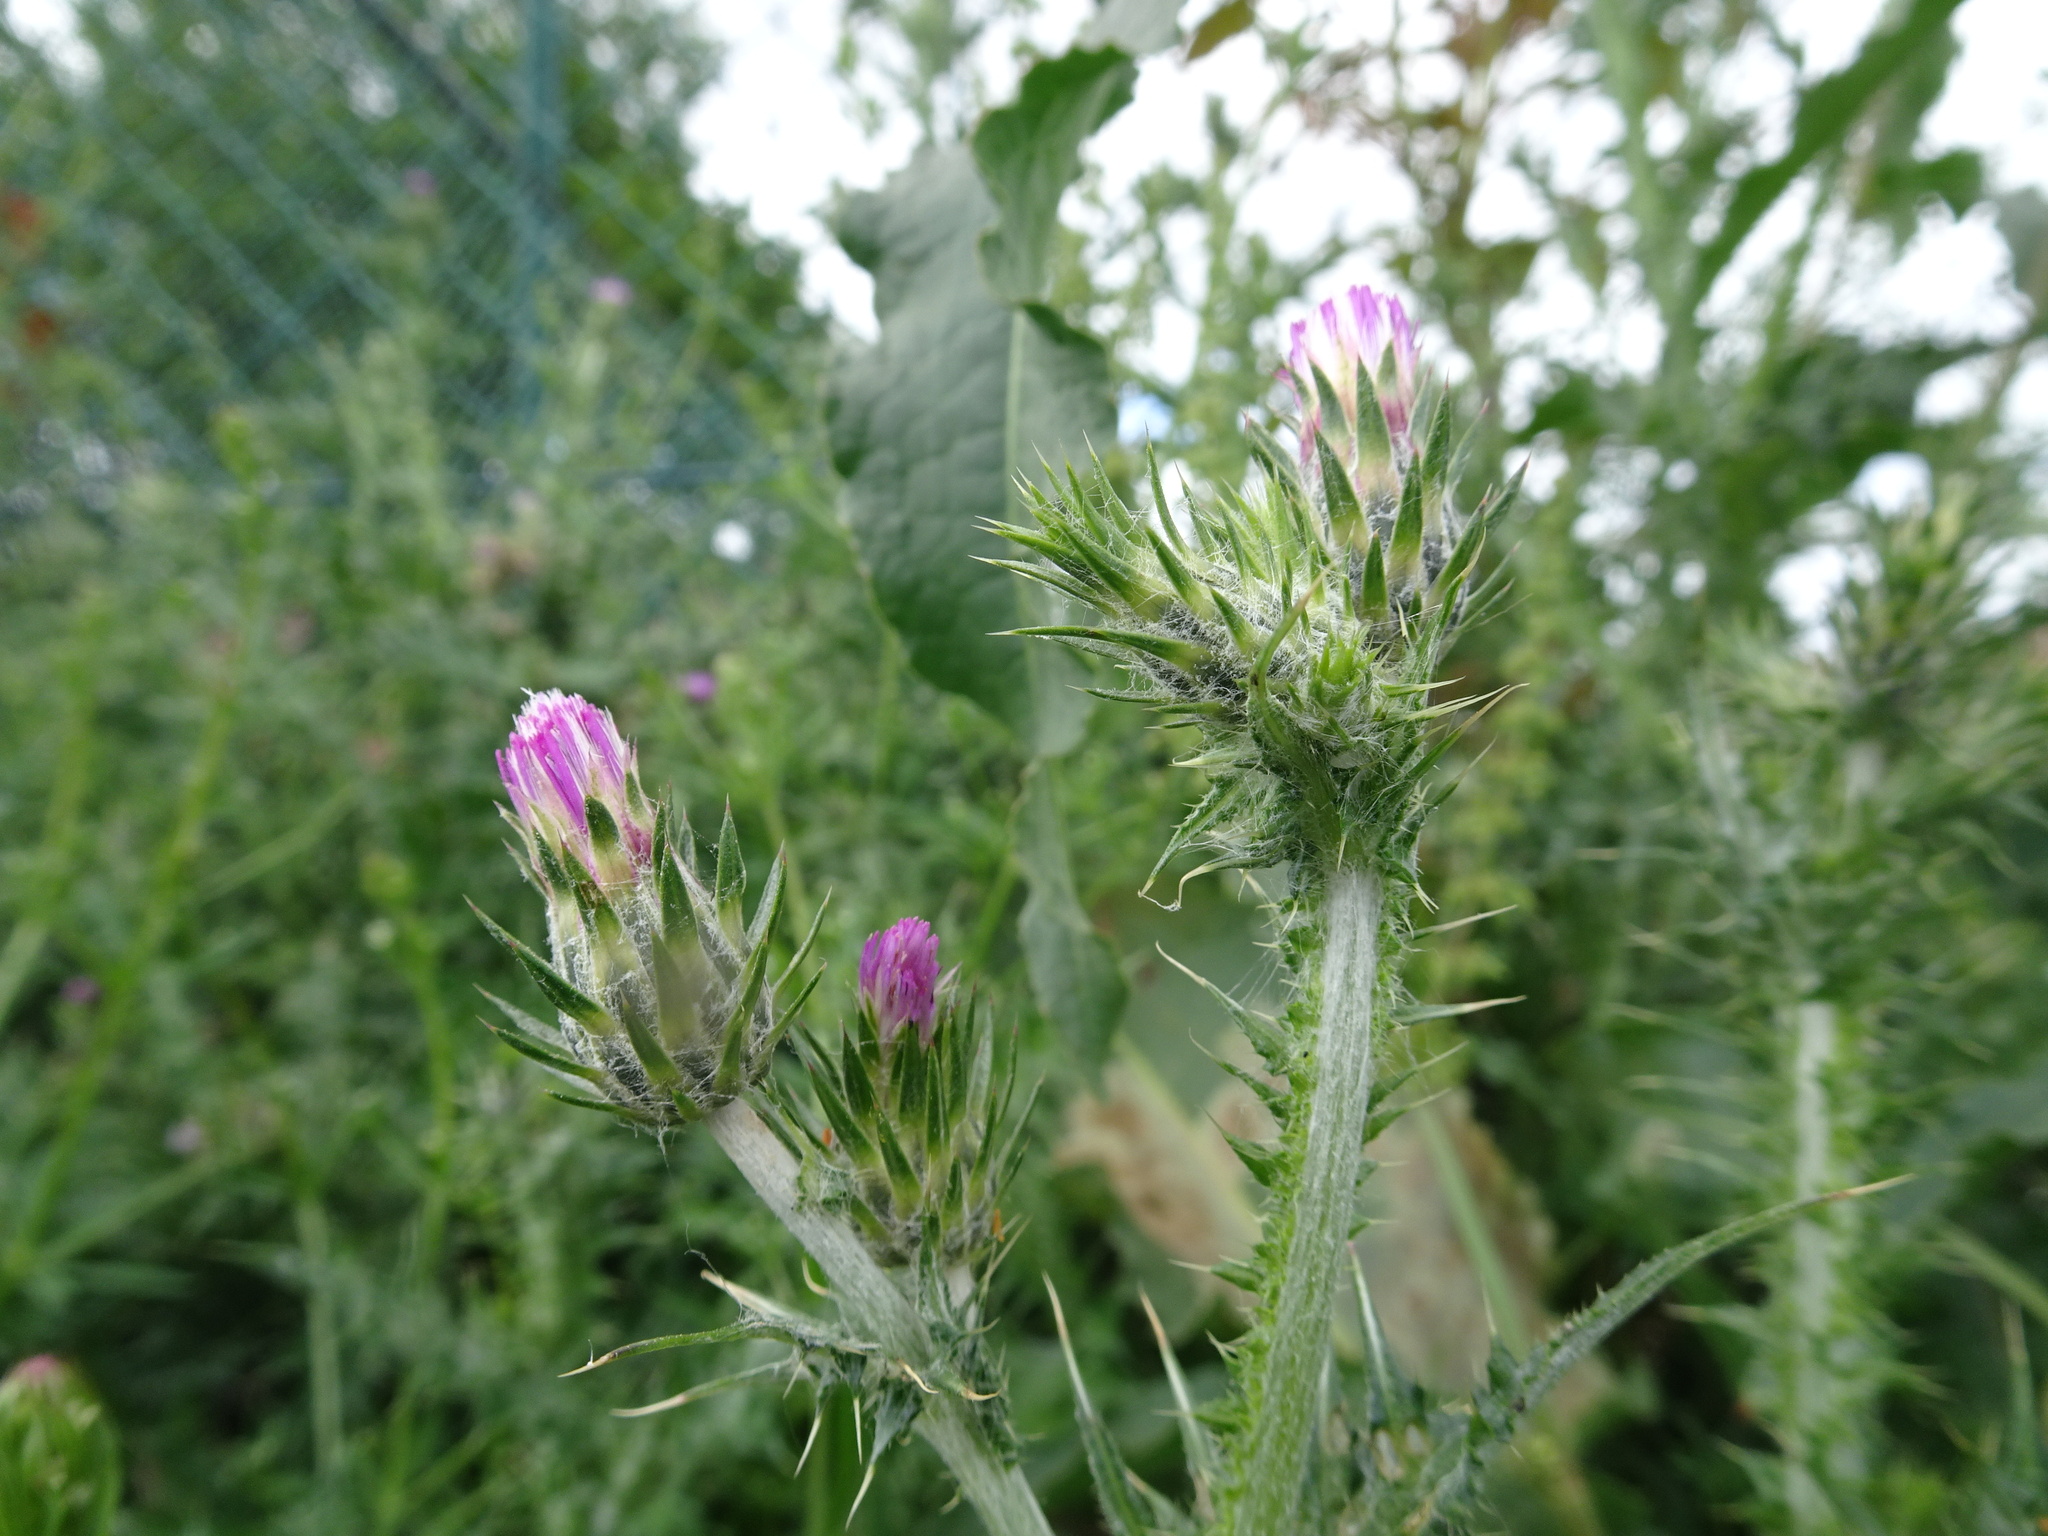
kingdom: Plantae
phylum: Tracheophyta
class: Magnoliopsida
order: Asterales
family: Asteraceae
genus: Carduus
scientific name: Carduus pycnocephalus
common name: Plymouth thistle
